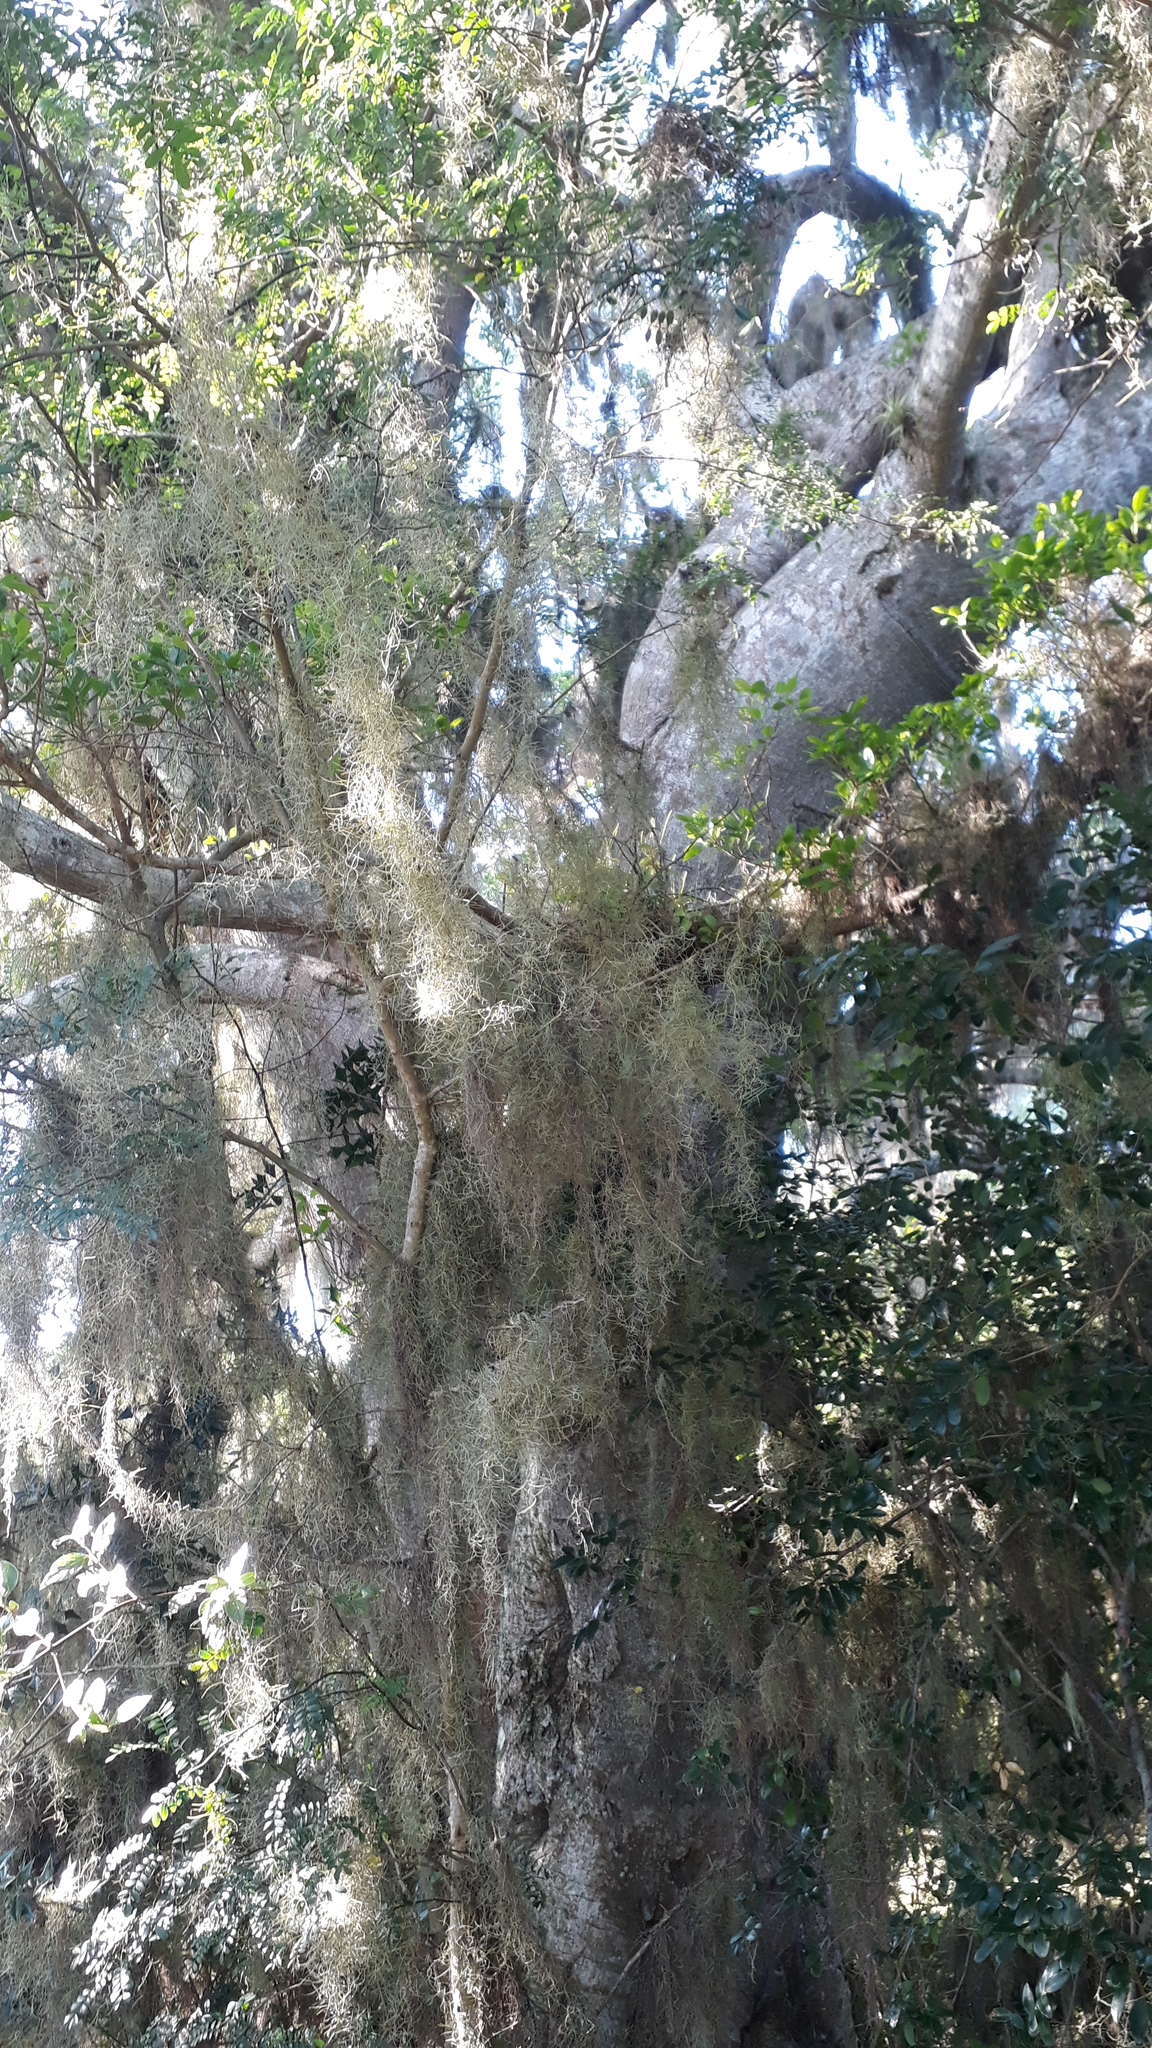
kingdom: Plantae
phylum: Tracheophyta
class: Liliopsida
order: Poales
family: Bromeliaceae
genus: Tillandsia
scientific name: Tillandsia usneoides
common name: Spanish moss
